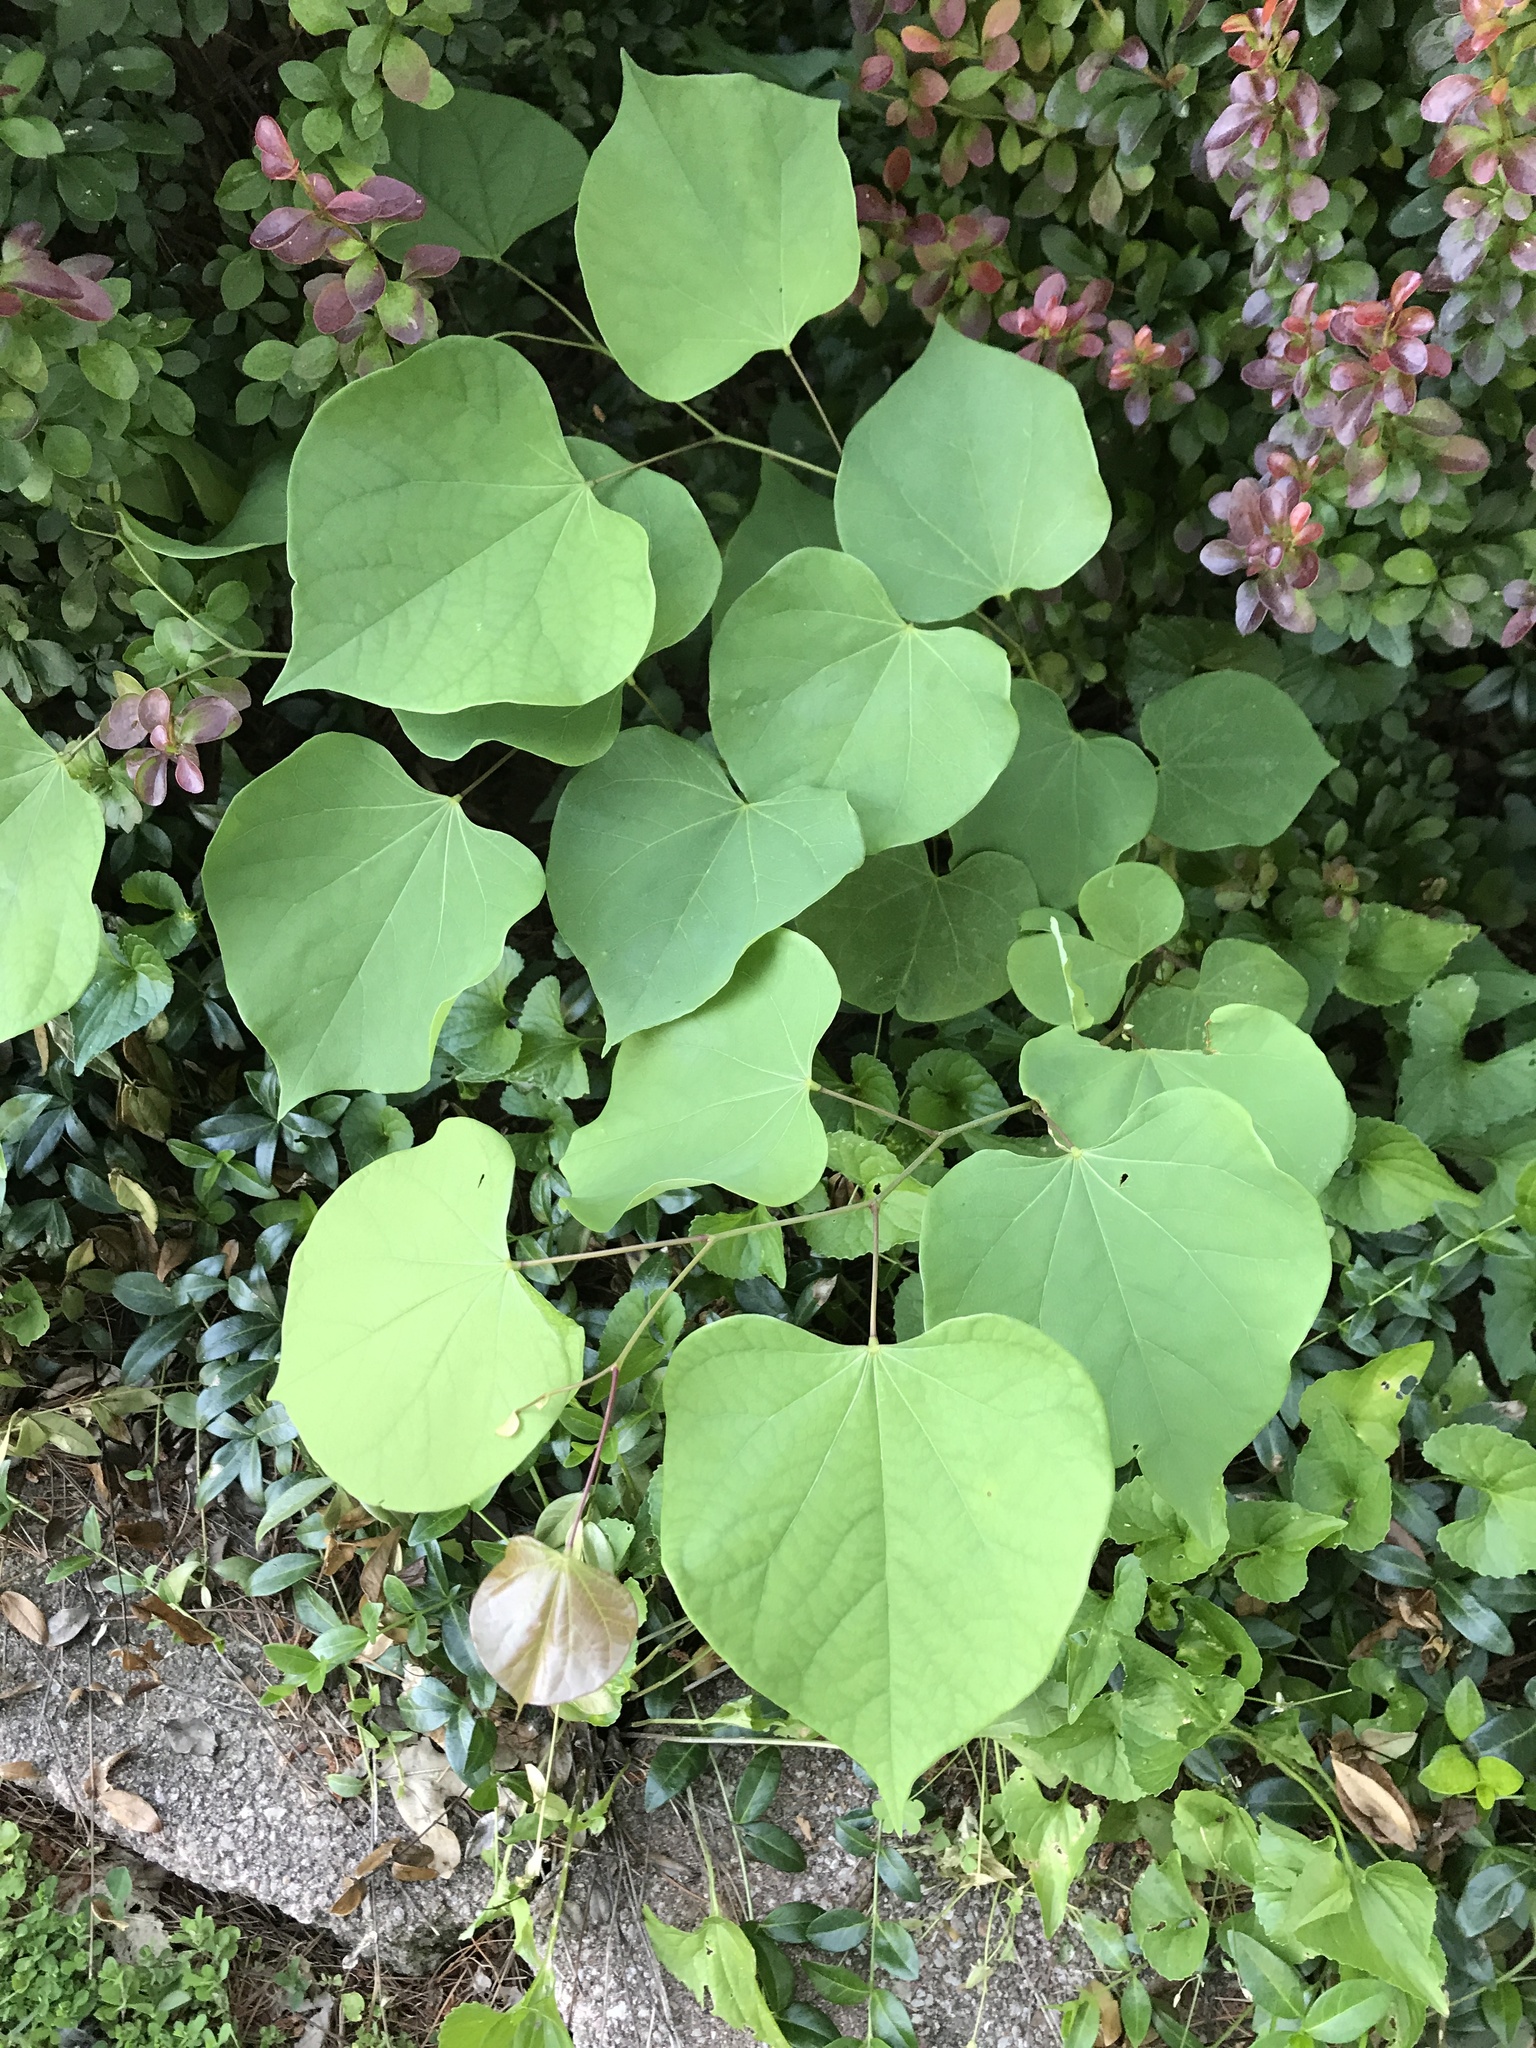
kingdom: Plantae
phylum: Tracheophyta
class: Magnoliopsida
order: Fabales
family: Fabaceae
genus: Cercis
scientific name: Cercis canadensis
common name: Eastern redbud
